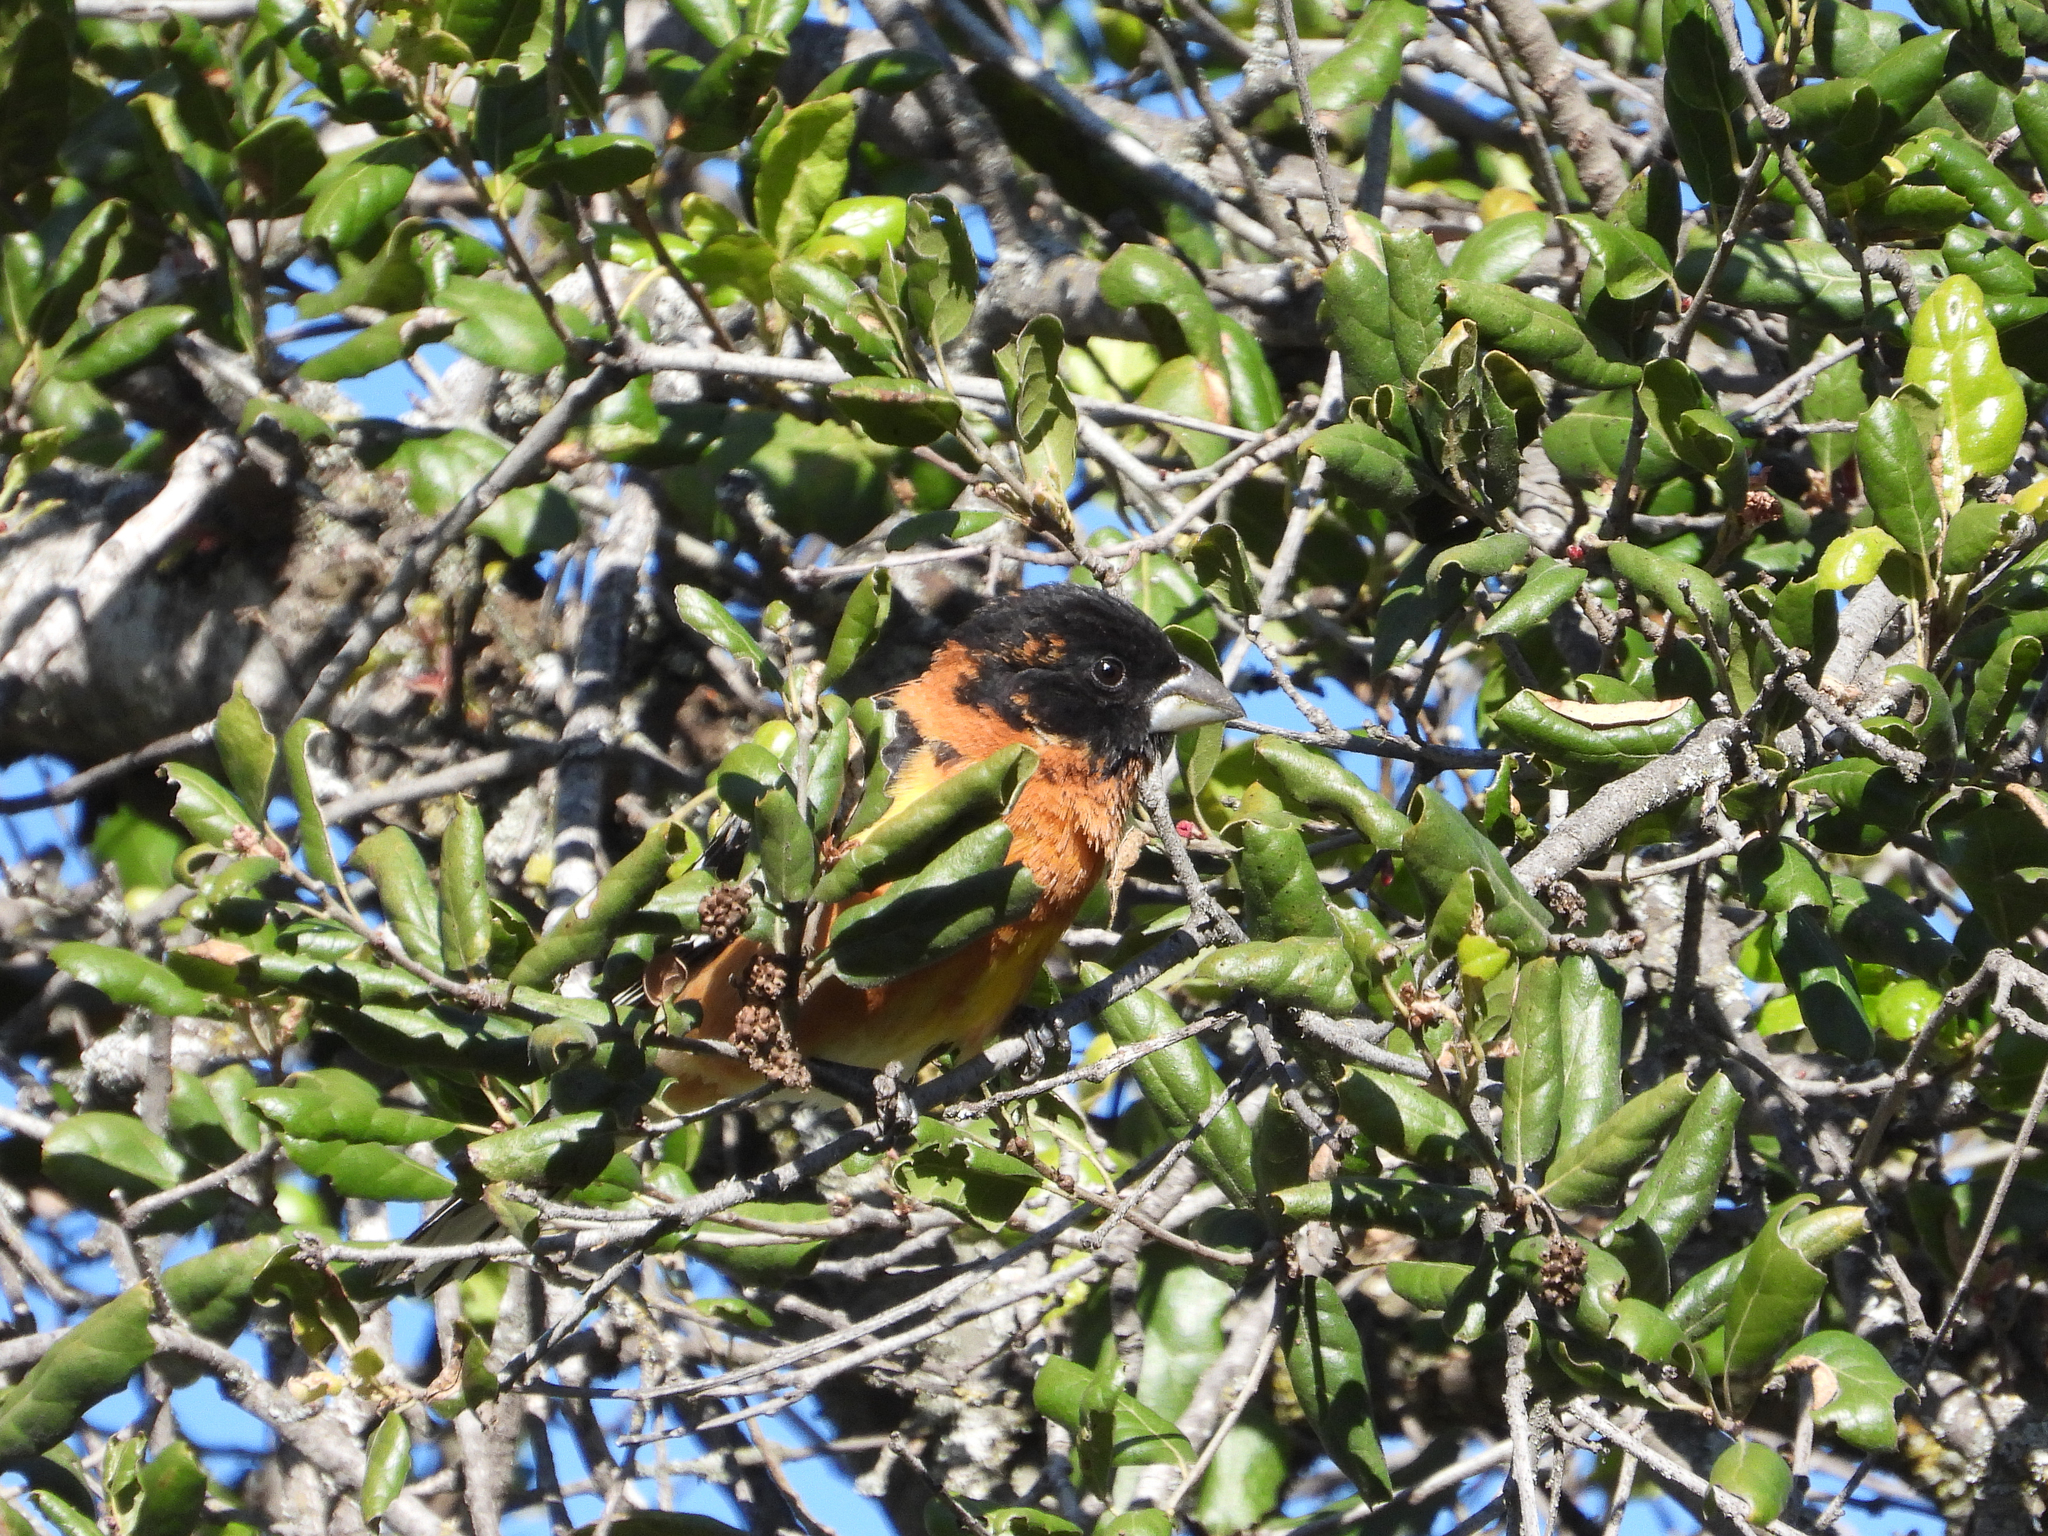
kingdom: Animalia
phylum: Chordata
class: Aves
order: Passeriformes
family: Cardinalidae
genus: Pheucticus
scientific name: Pheucticus melanocephalus
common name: Black-headed grosbeak
